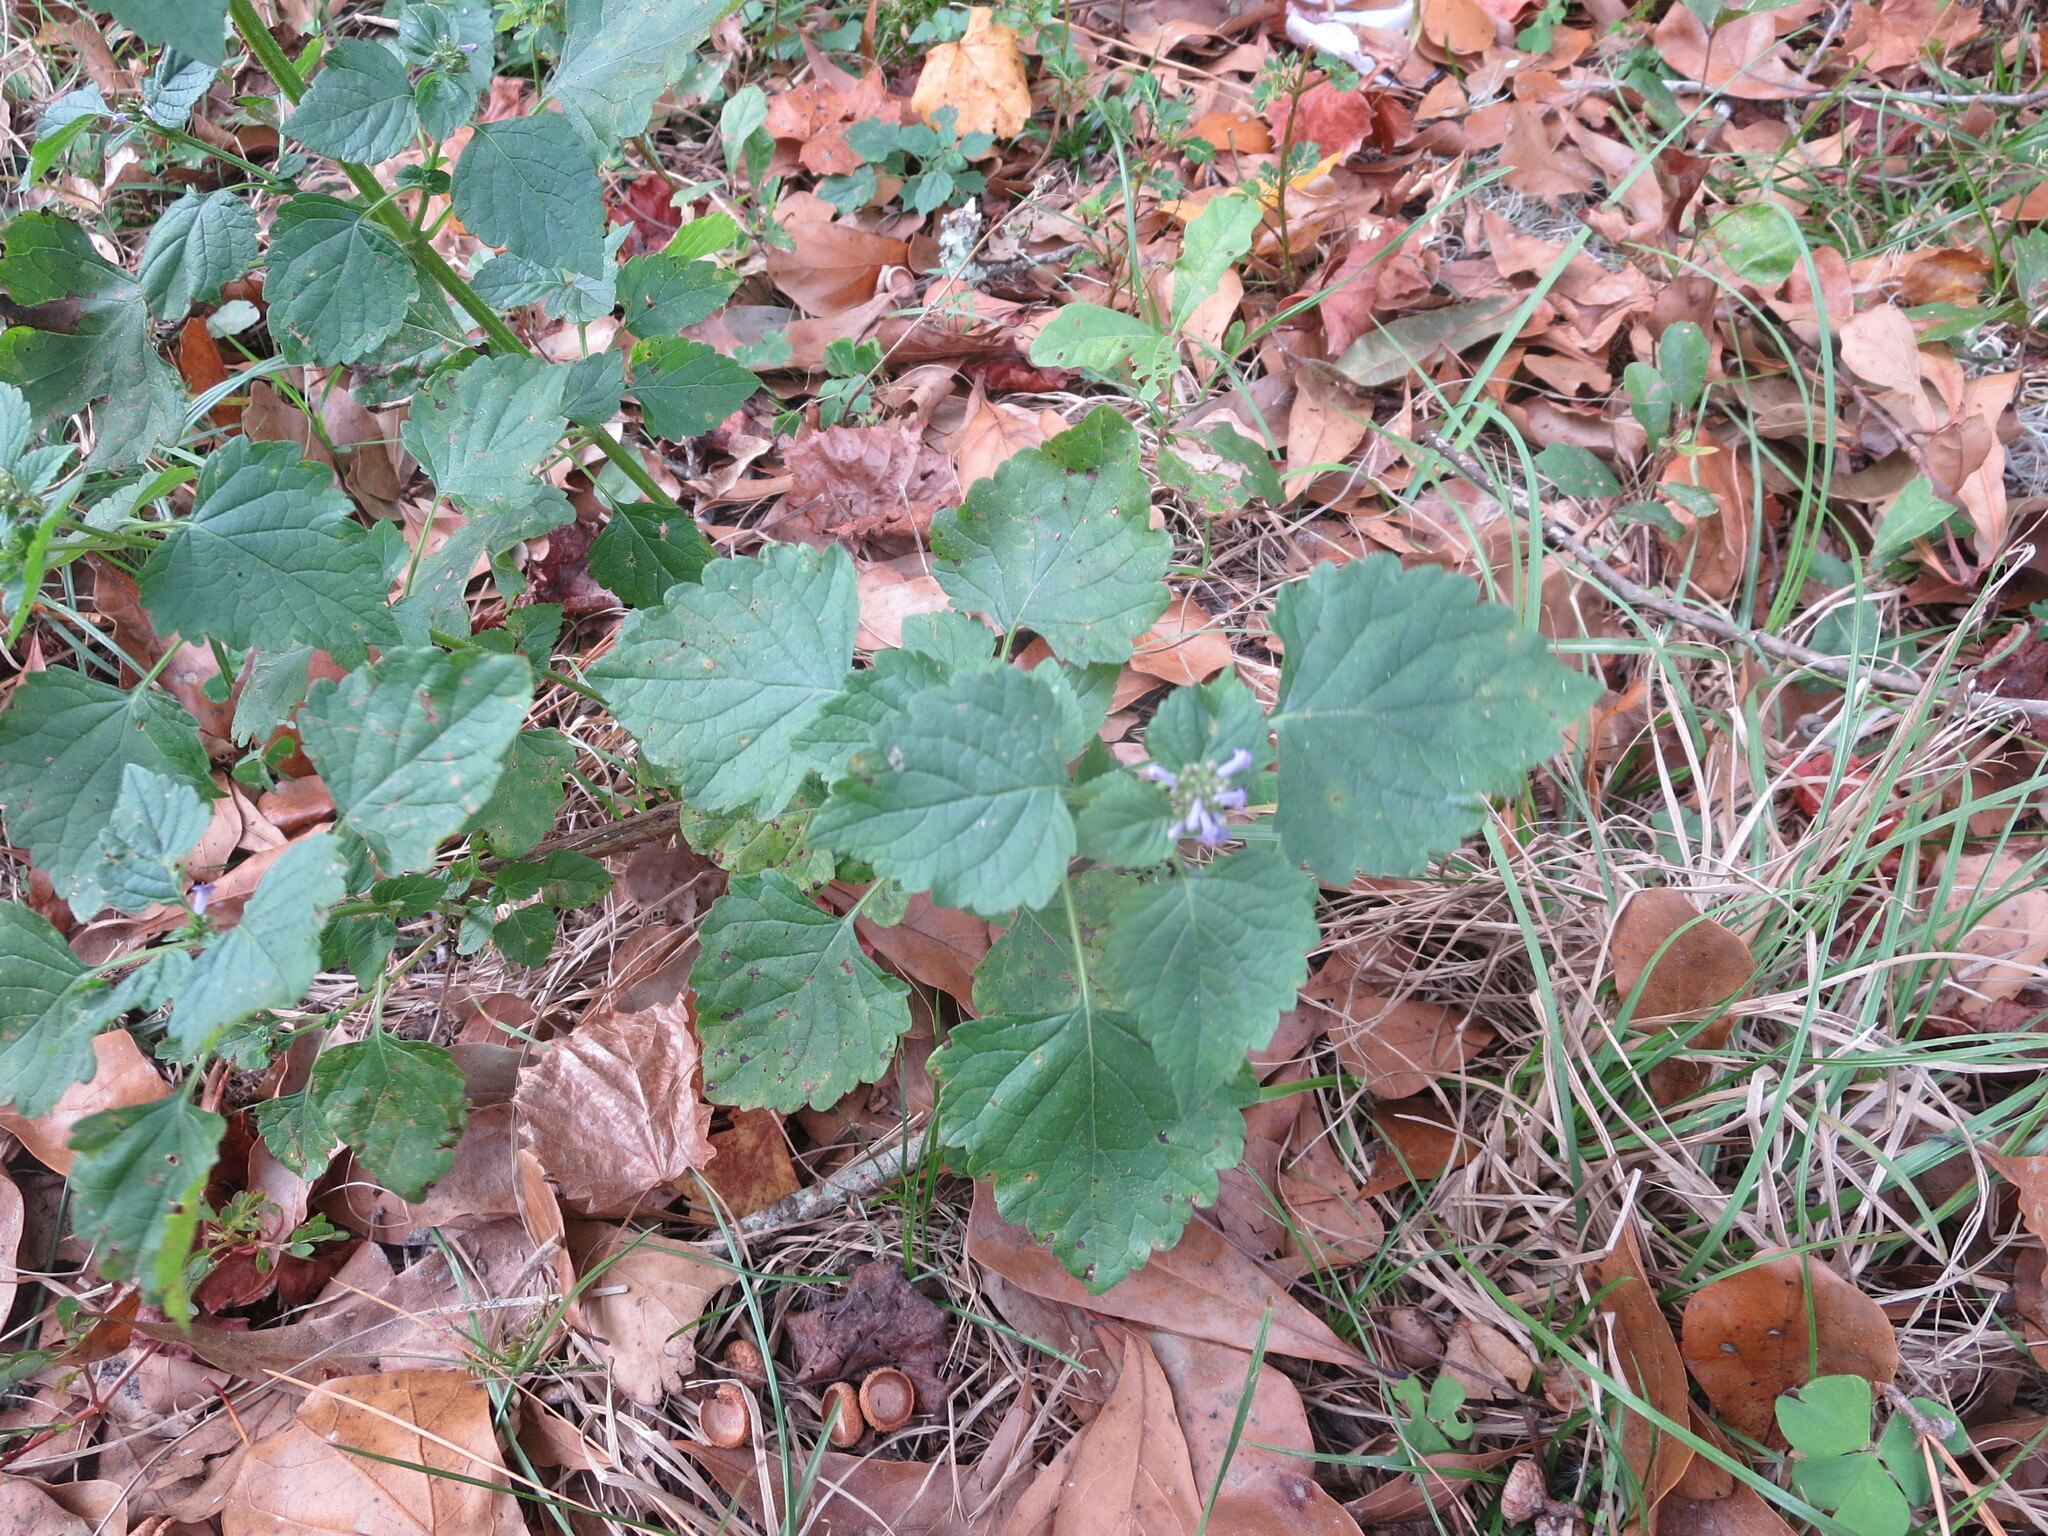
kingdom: Plantae
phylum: Tracheophyta
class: Magnoliopsida
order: Lamiales
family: Lamiaceae
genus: Cantinoa
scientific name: Cantinoa mutabilis
